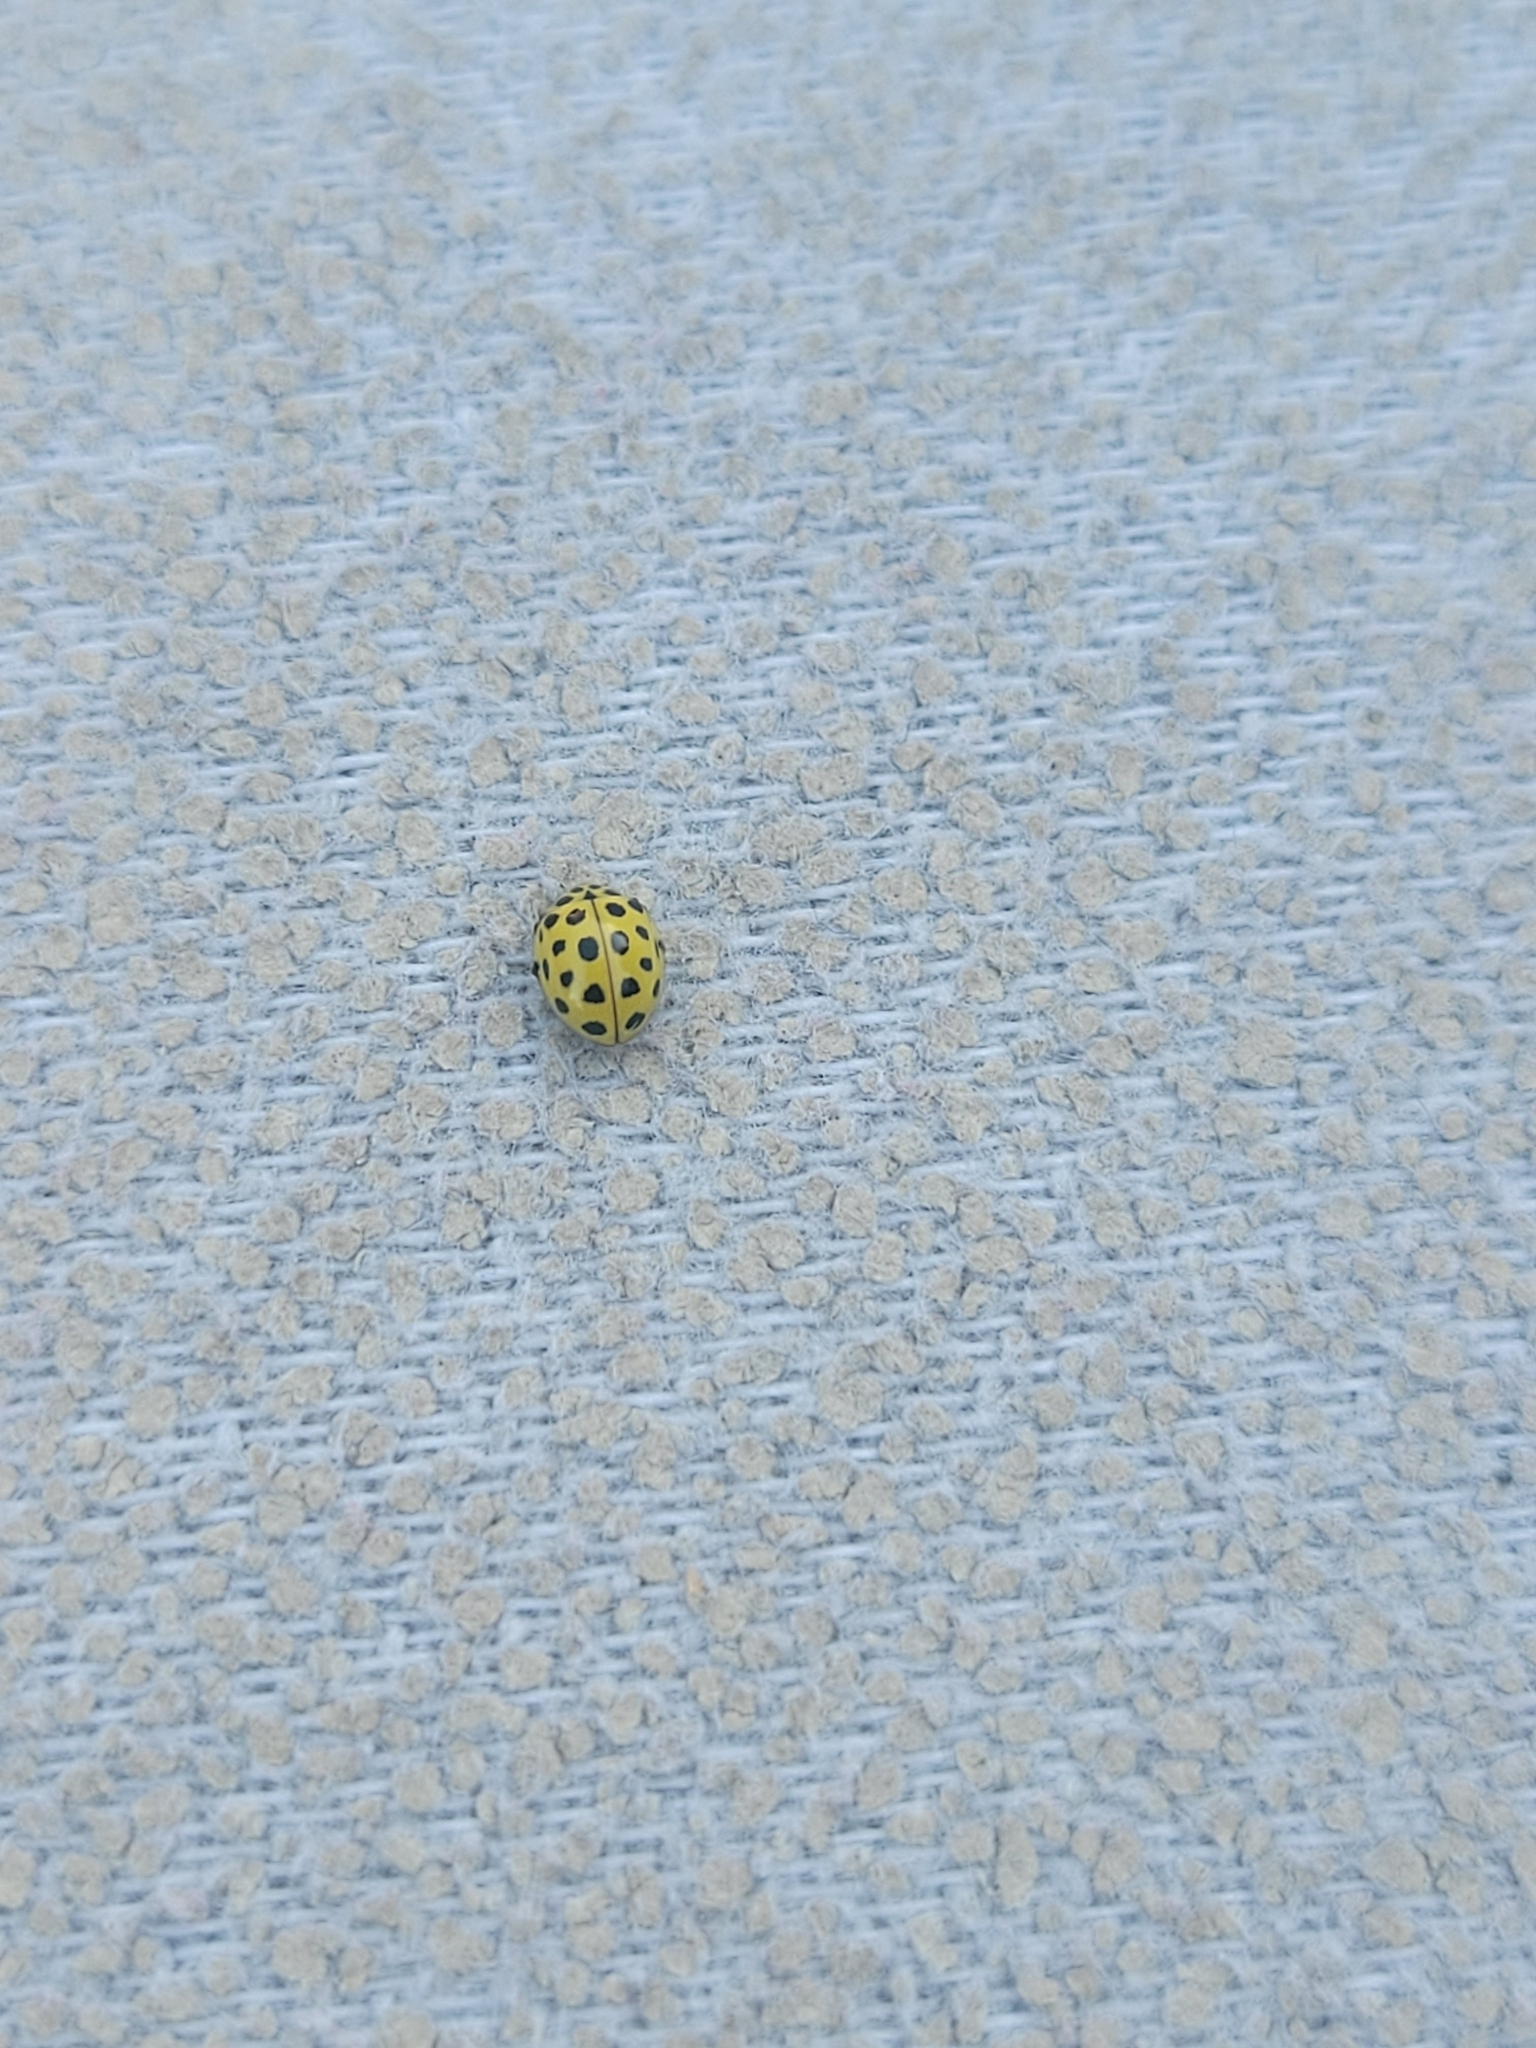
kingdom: Animalia
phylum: Arthropoda
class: Insecta
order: Coleoptera
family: Coccinellidae
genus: Psyllobora
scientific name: Psyllobora vigintiduopunctata
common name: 22-spot ladybird
